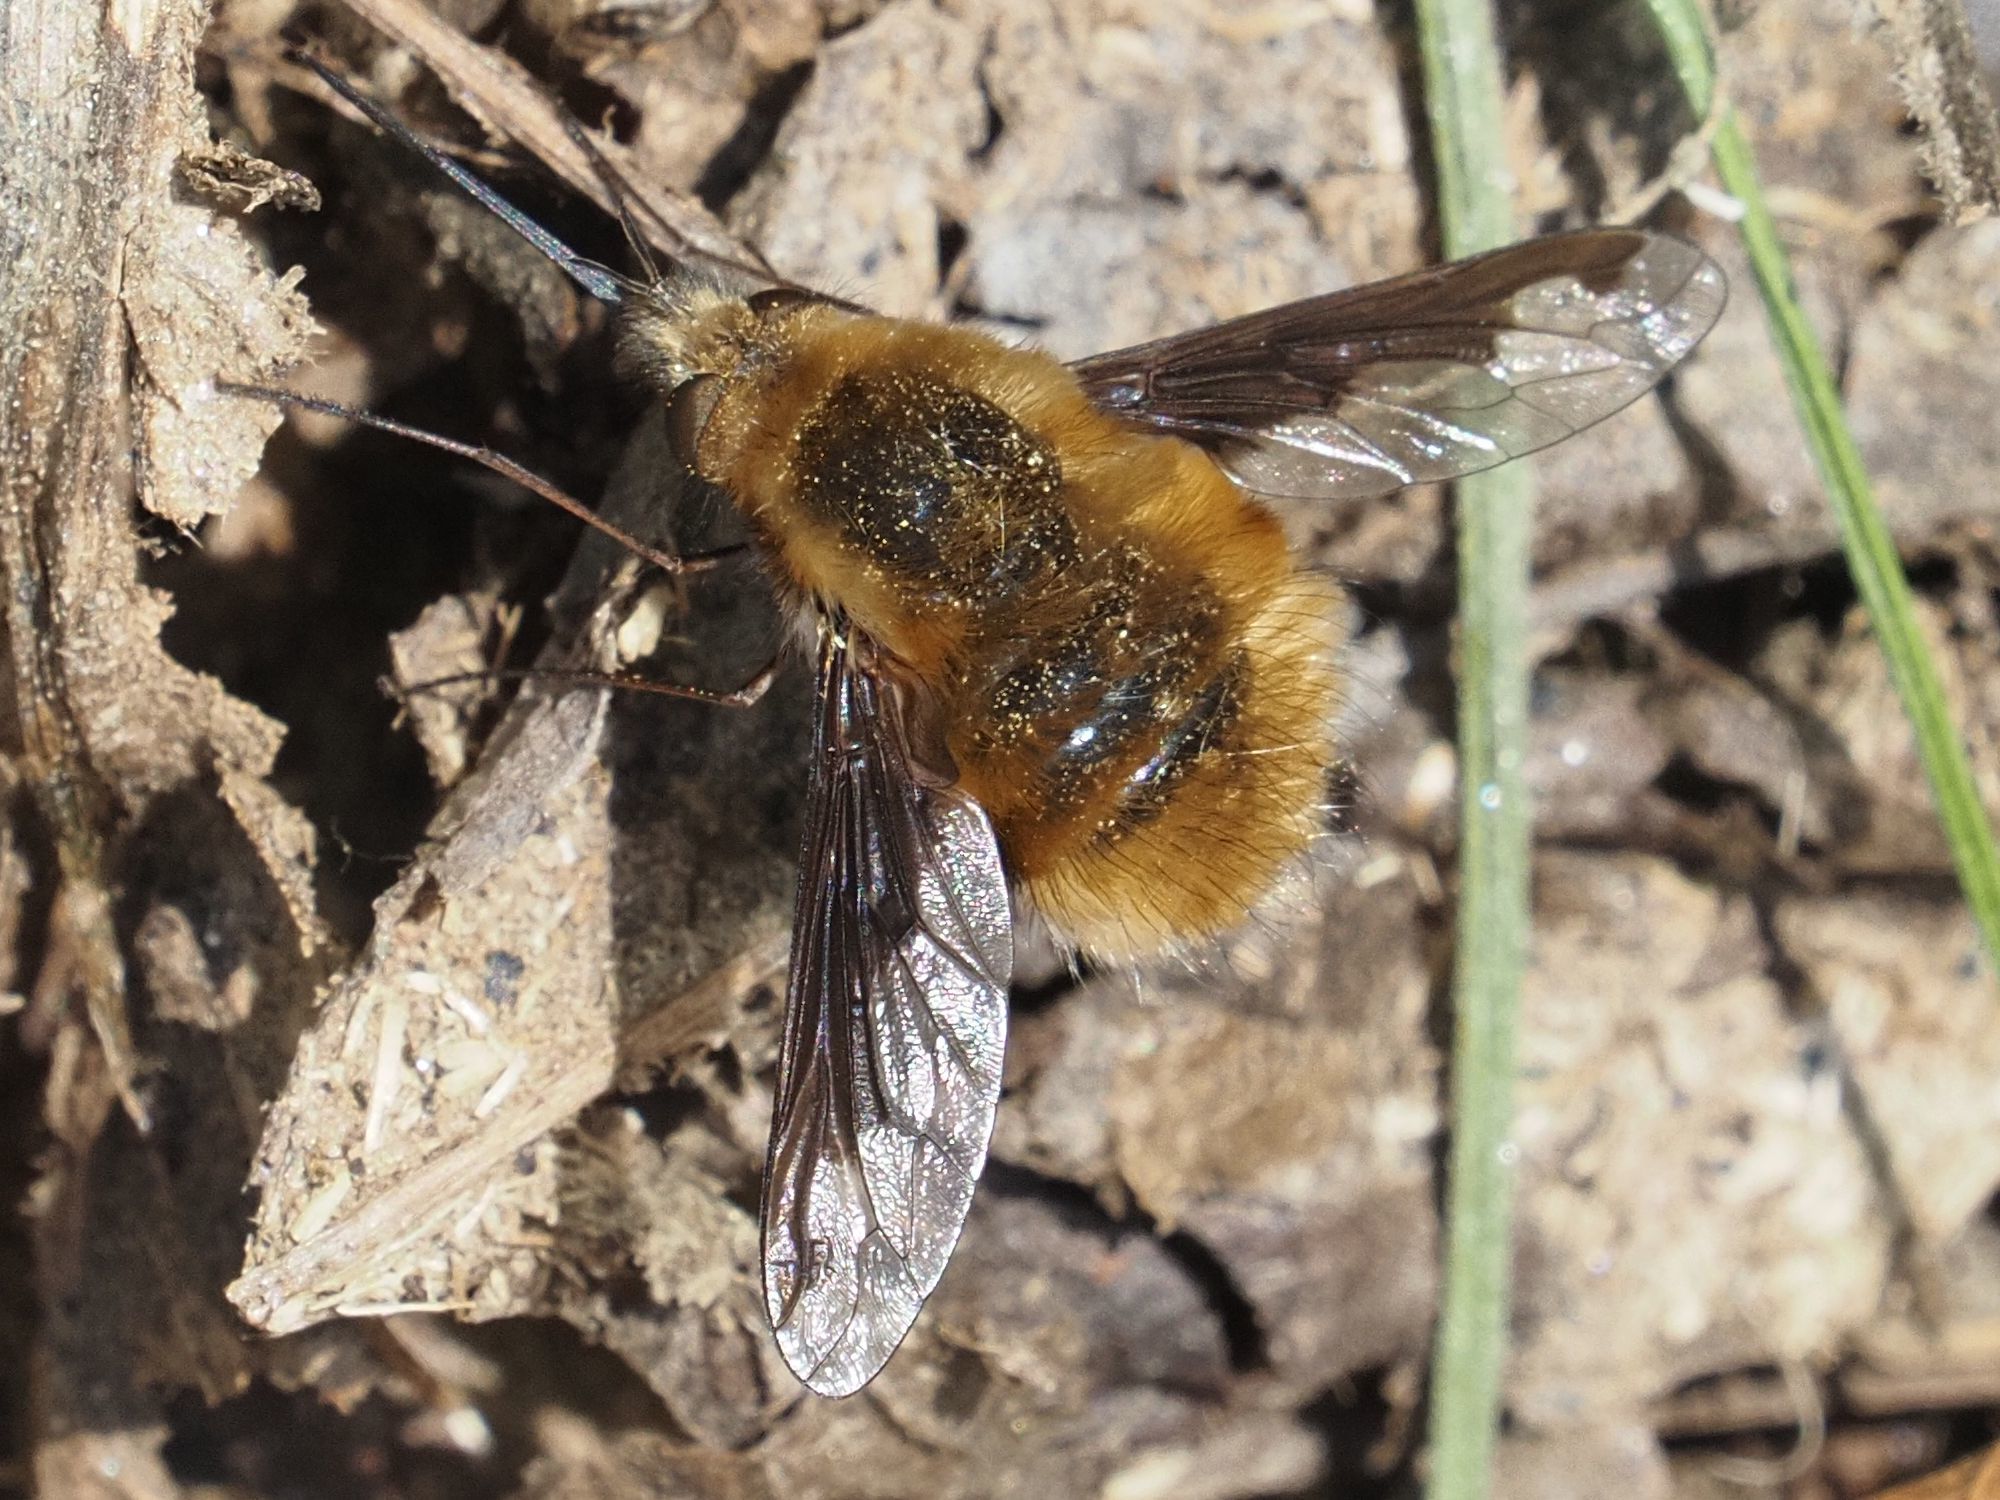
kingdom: Animalia
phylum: Arthropoda
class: Insecta
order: Diptera
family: Bombyliidae
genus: Bombylius
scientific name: Bombylius major
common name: Bee fly
